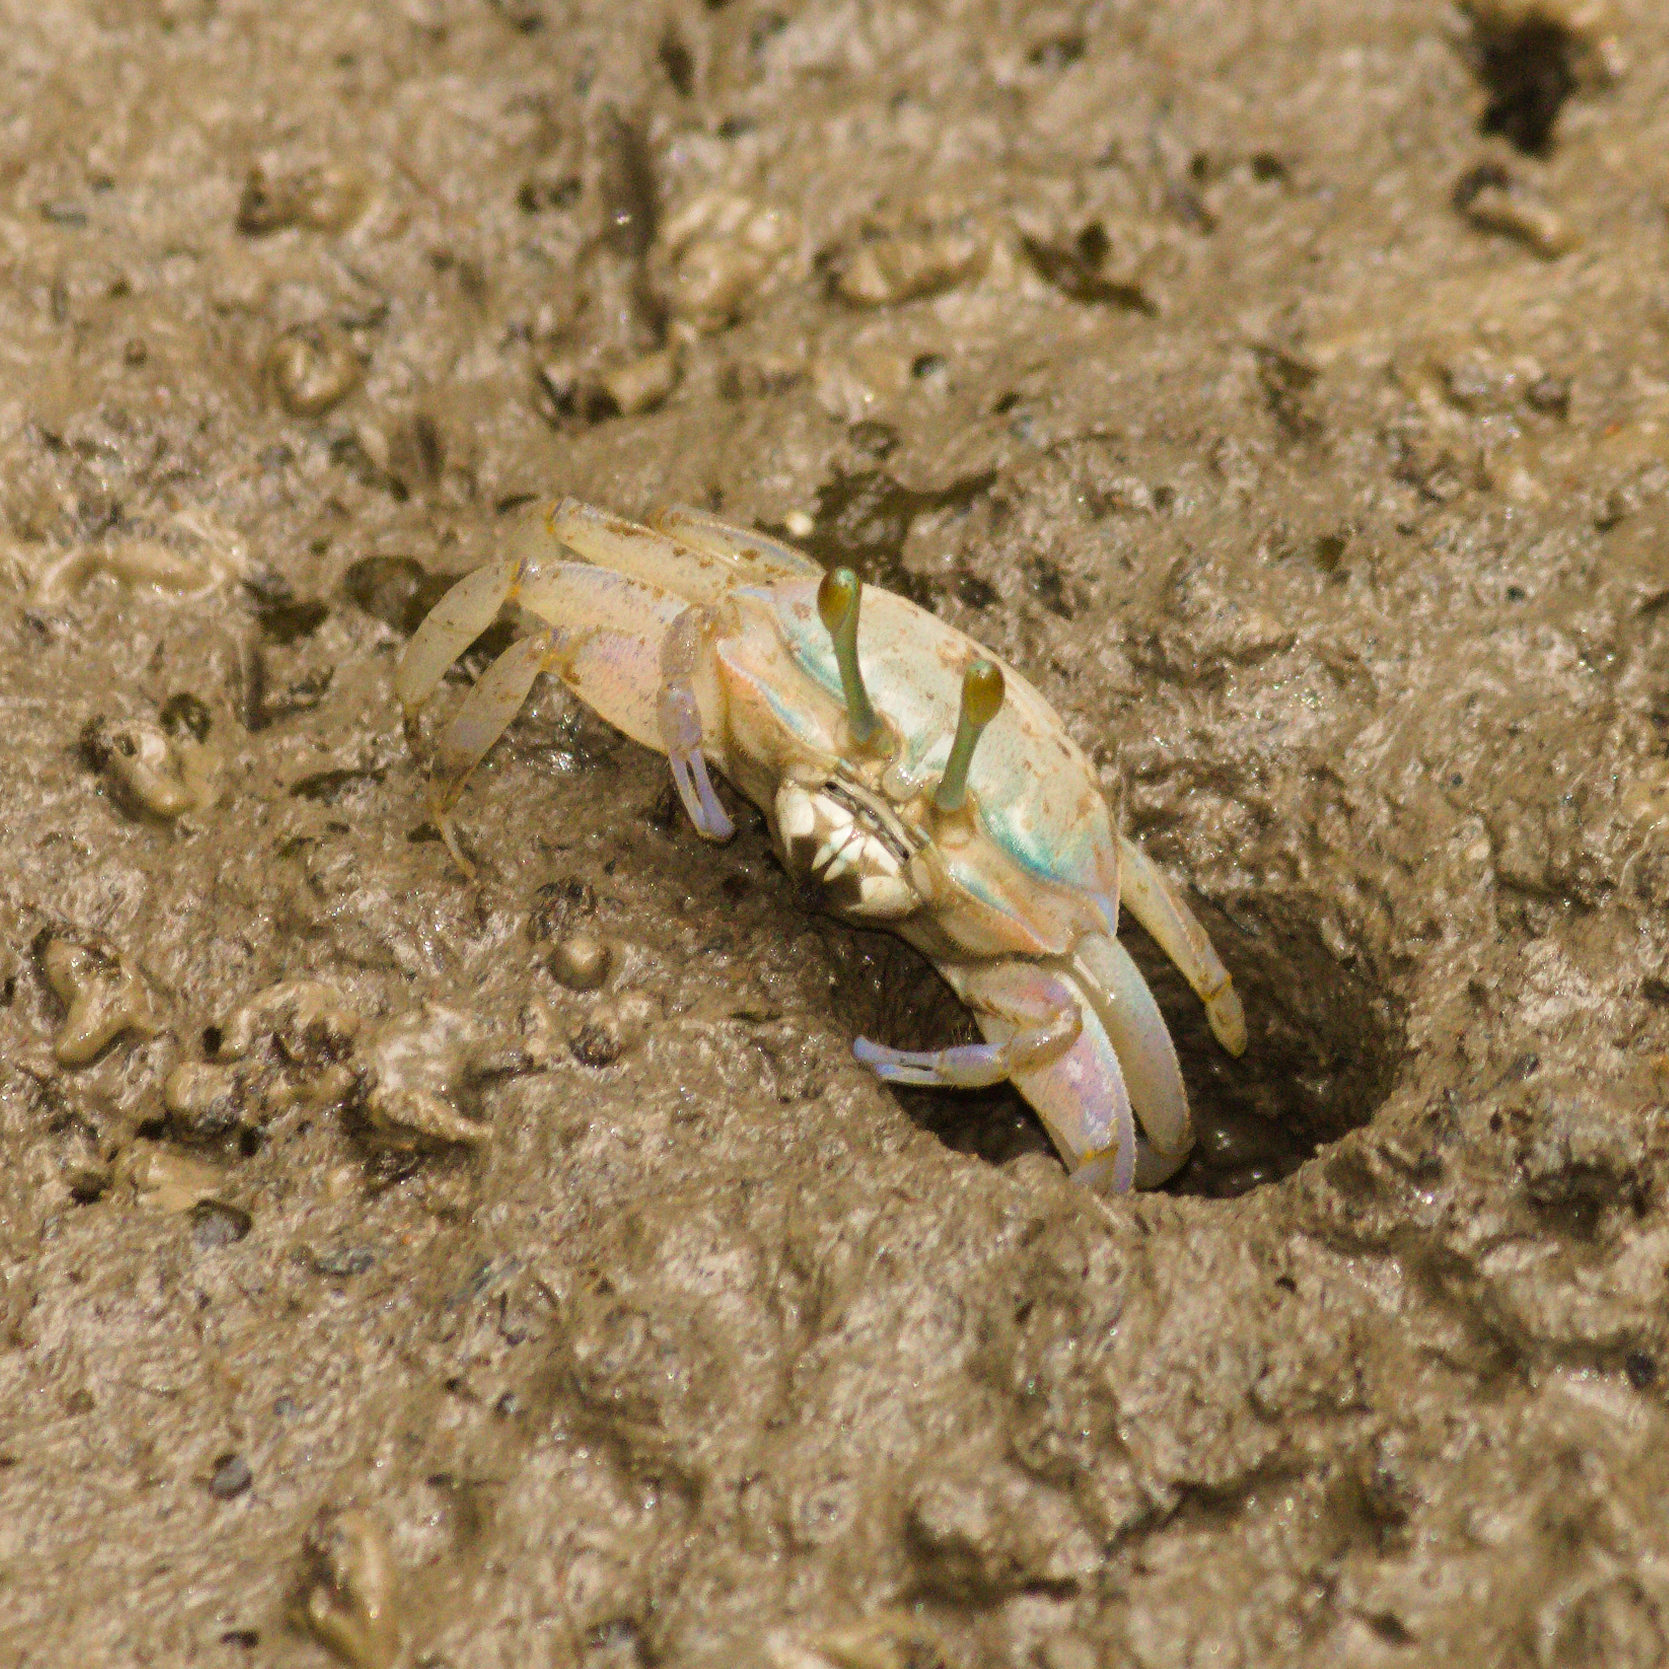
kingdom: Animalia
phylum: Arthropoda
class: Malacostraca
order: Decapoda
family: Ocypodidae
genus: Tubuca
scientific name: Tubuca rosea
